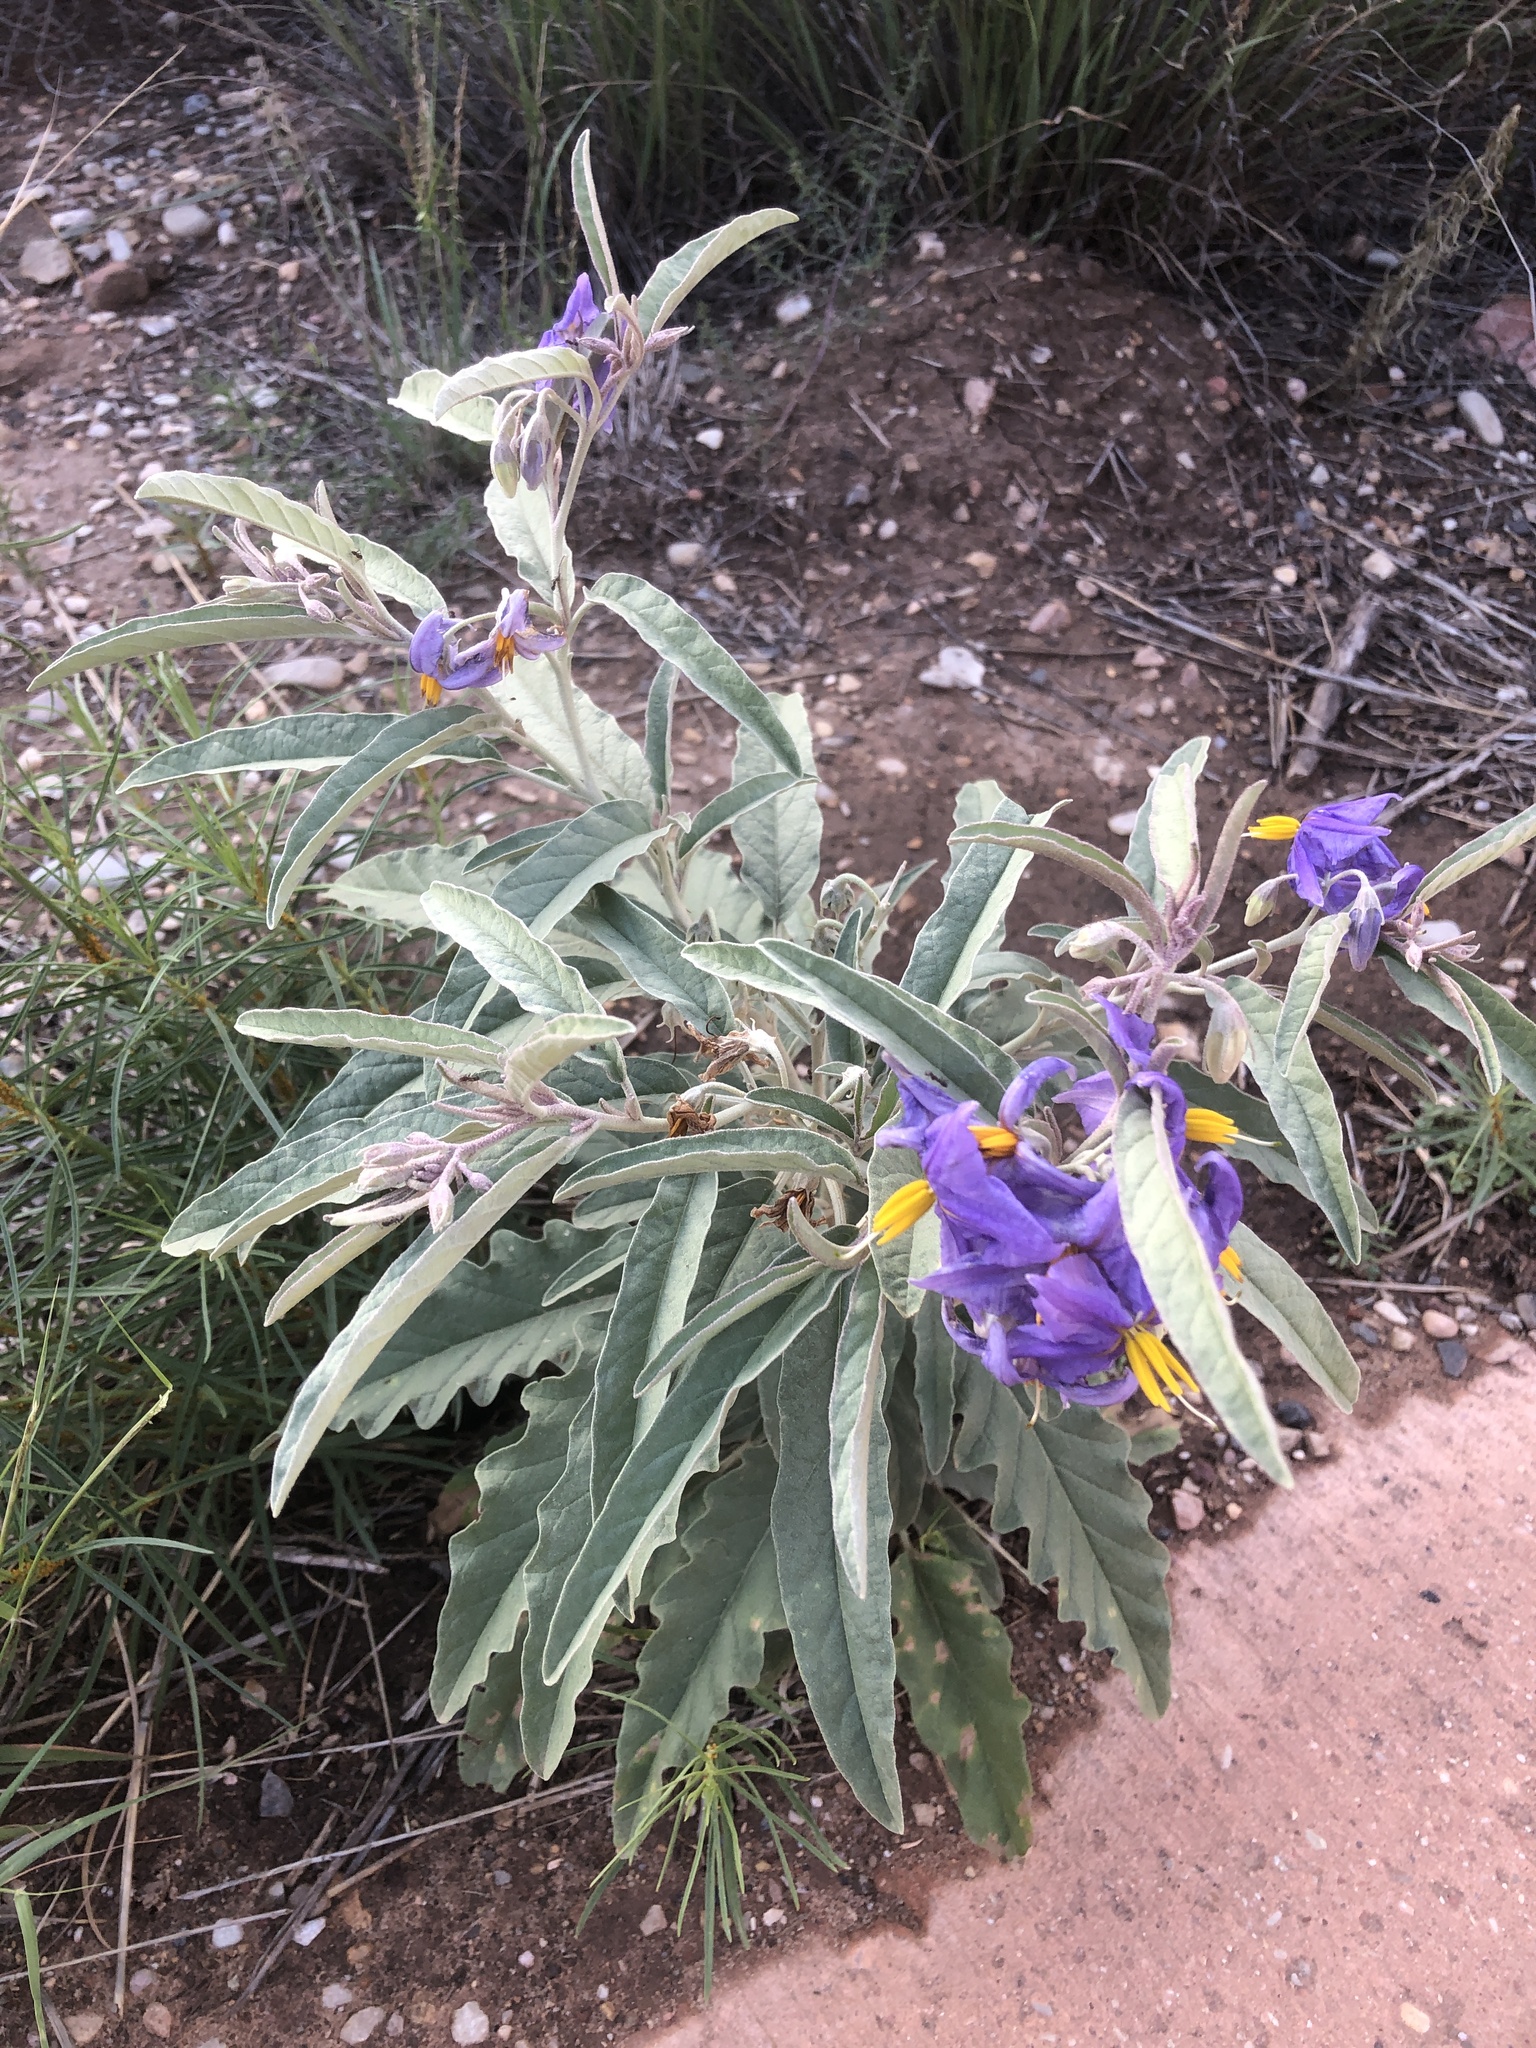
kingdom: Plantae
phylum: Tracheophyta
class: Magnoliopsida
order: Solanales
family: Solanaceae
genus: Solanum
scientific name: Solanum elaeagnifolium
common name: Silverleaf nightshade
